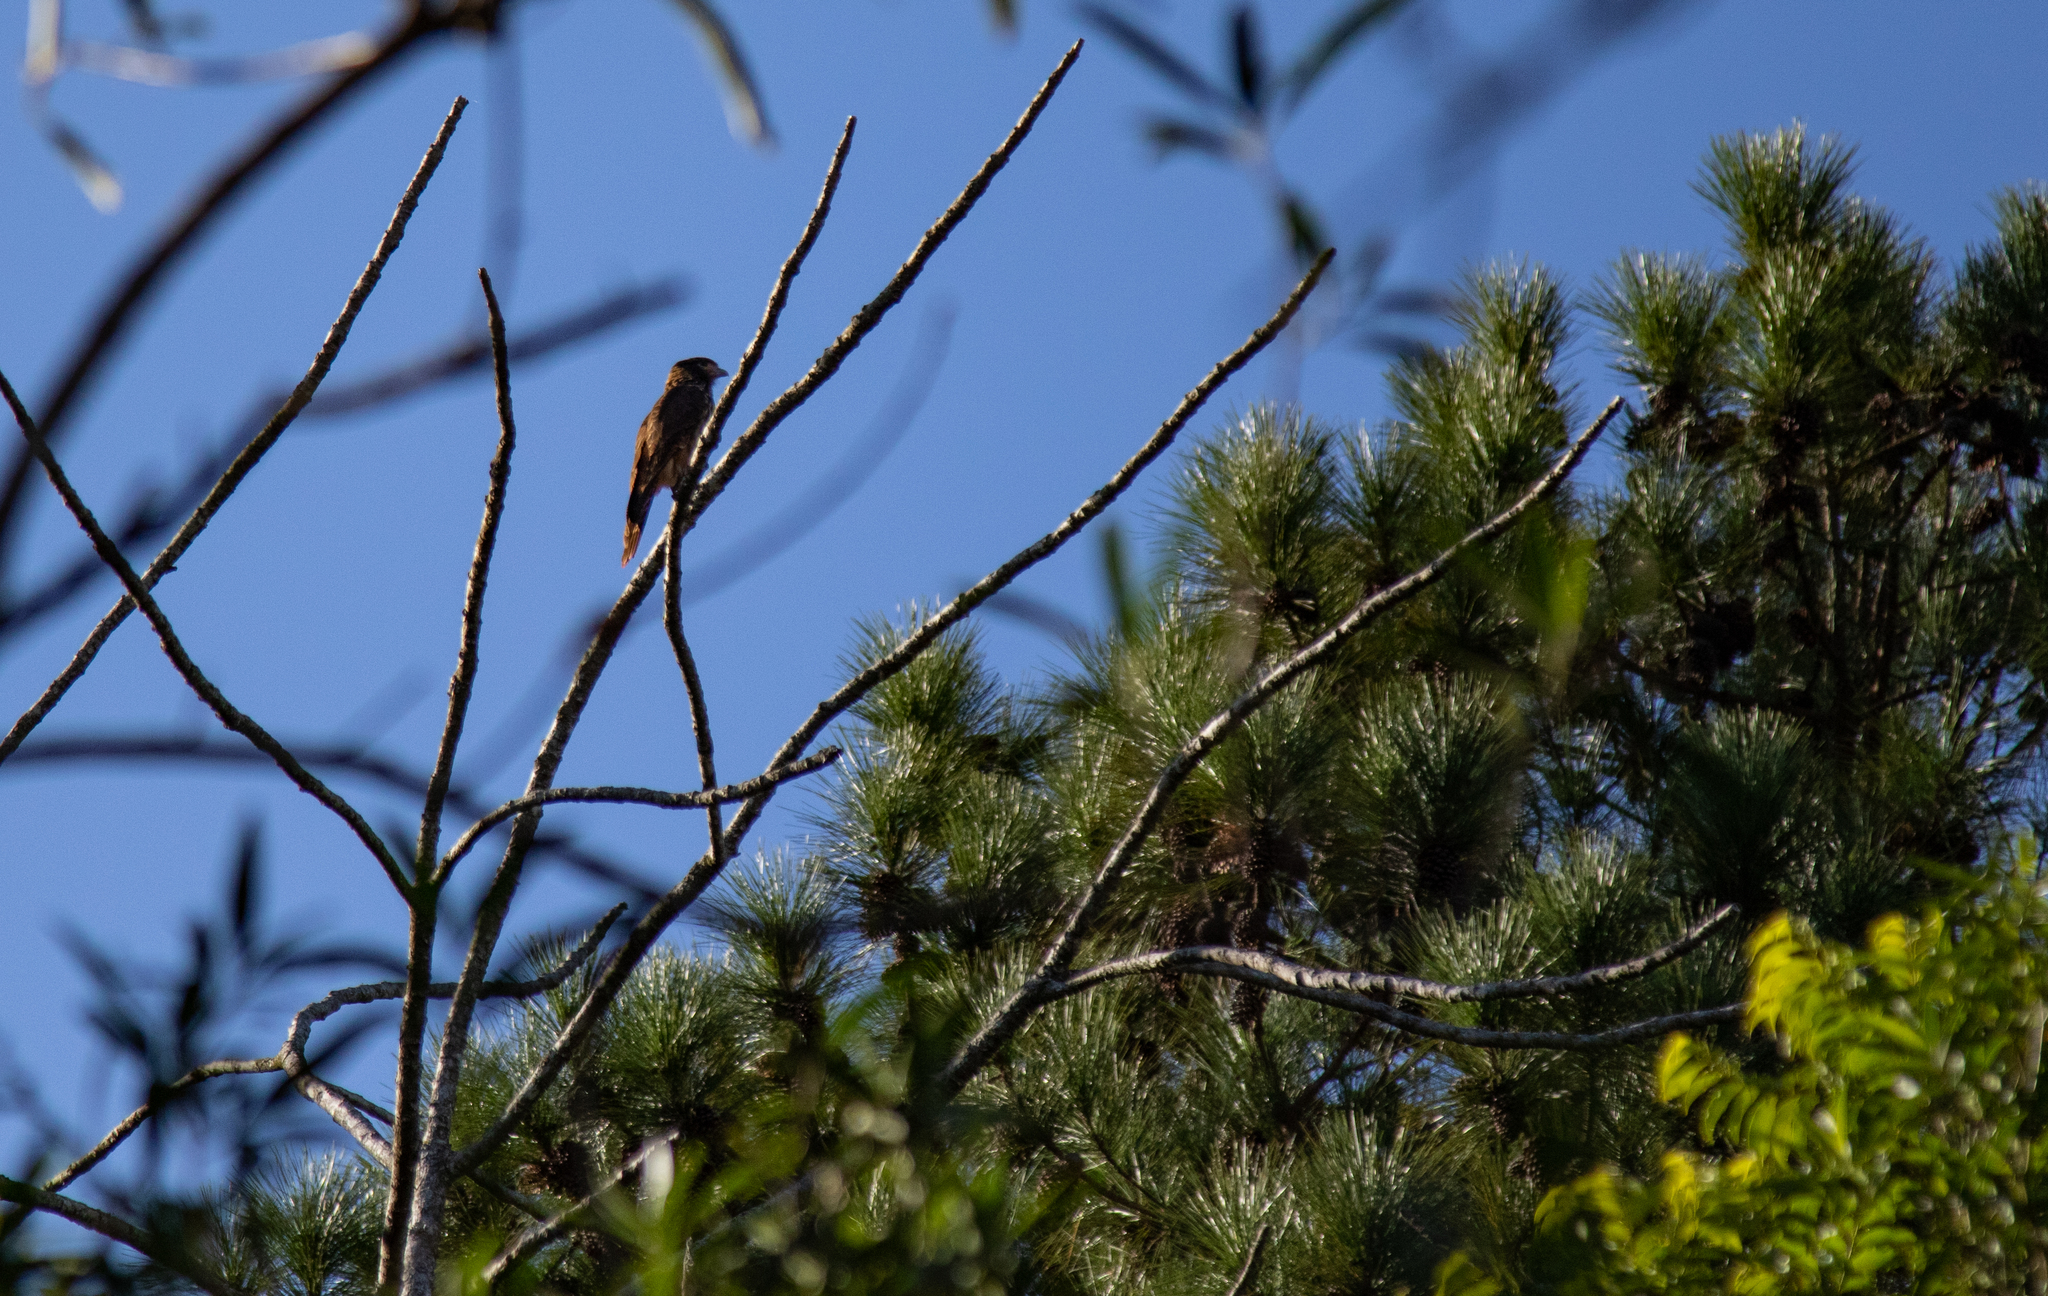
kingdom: Animalia
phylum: Chordata
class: Aves
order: Falconiformes
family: Falconidae
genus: Daptrius
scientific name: Daptrius
